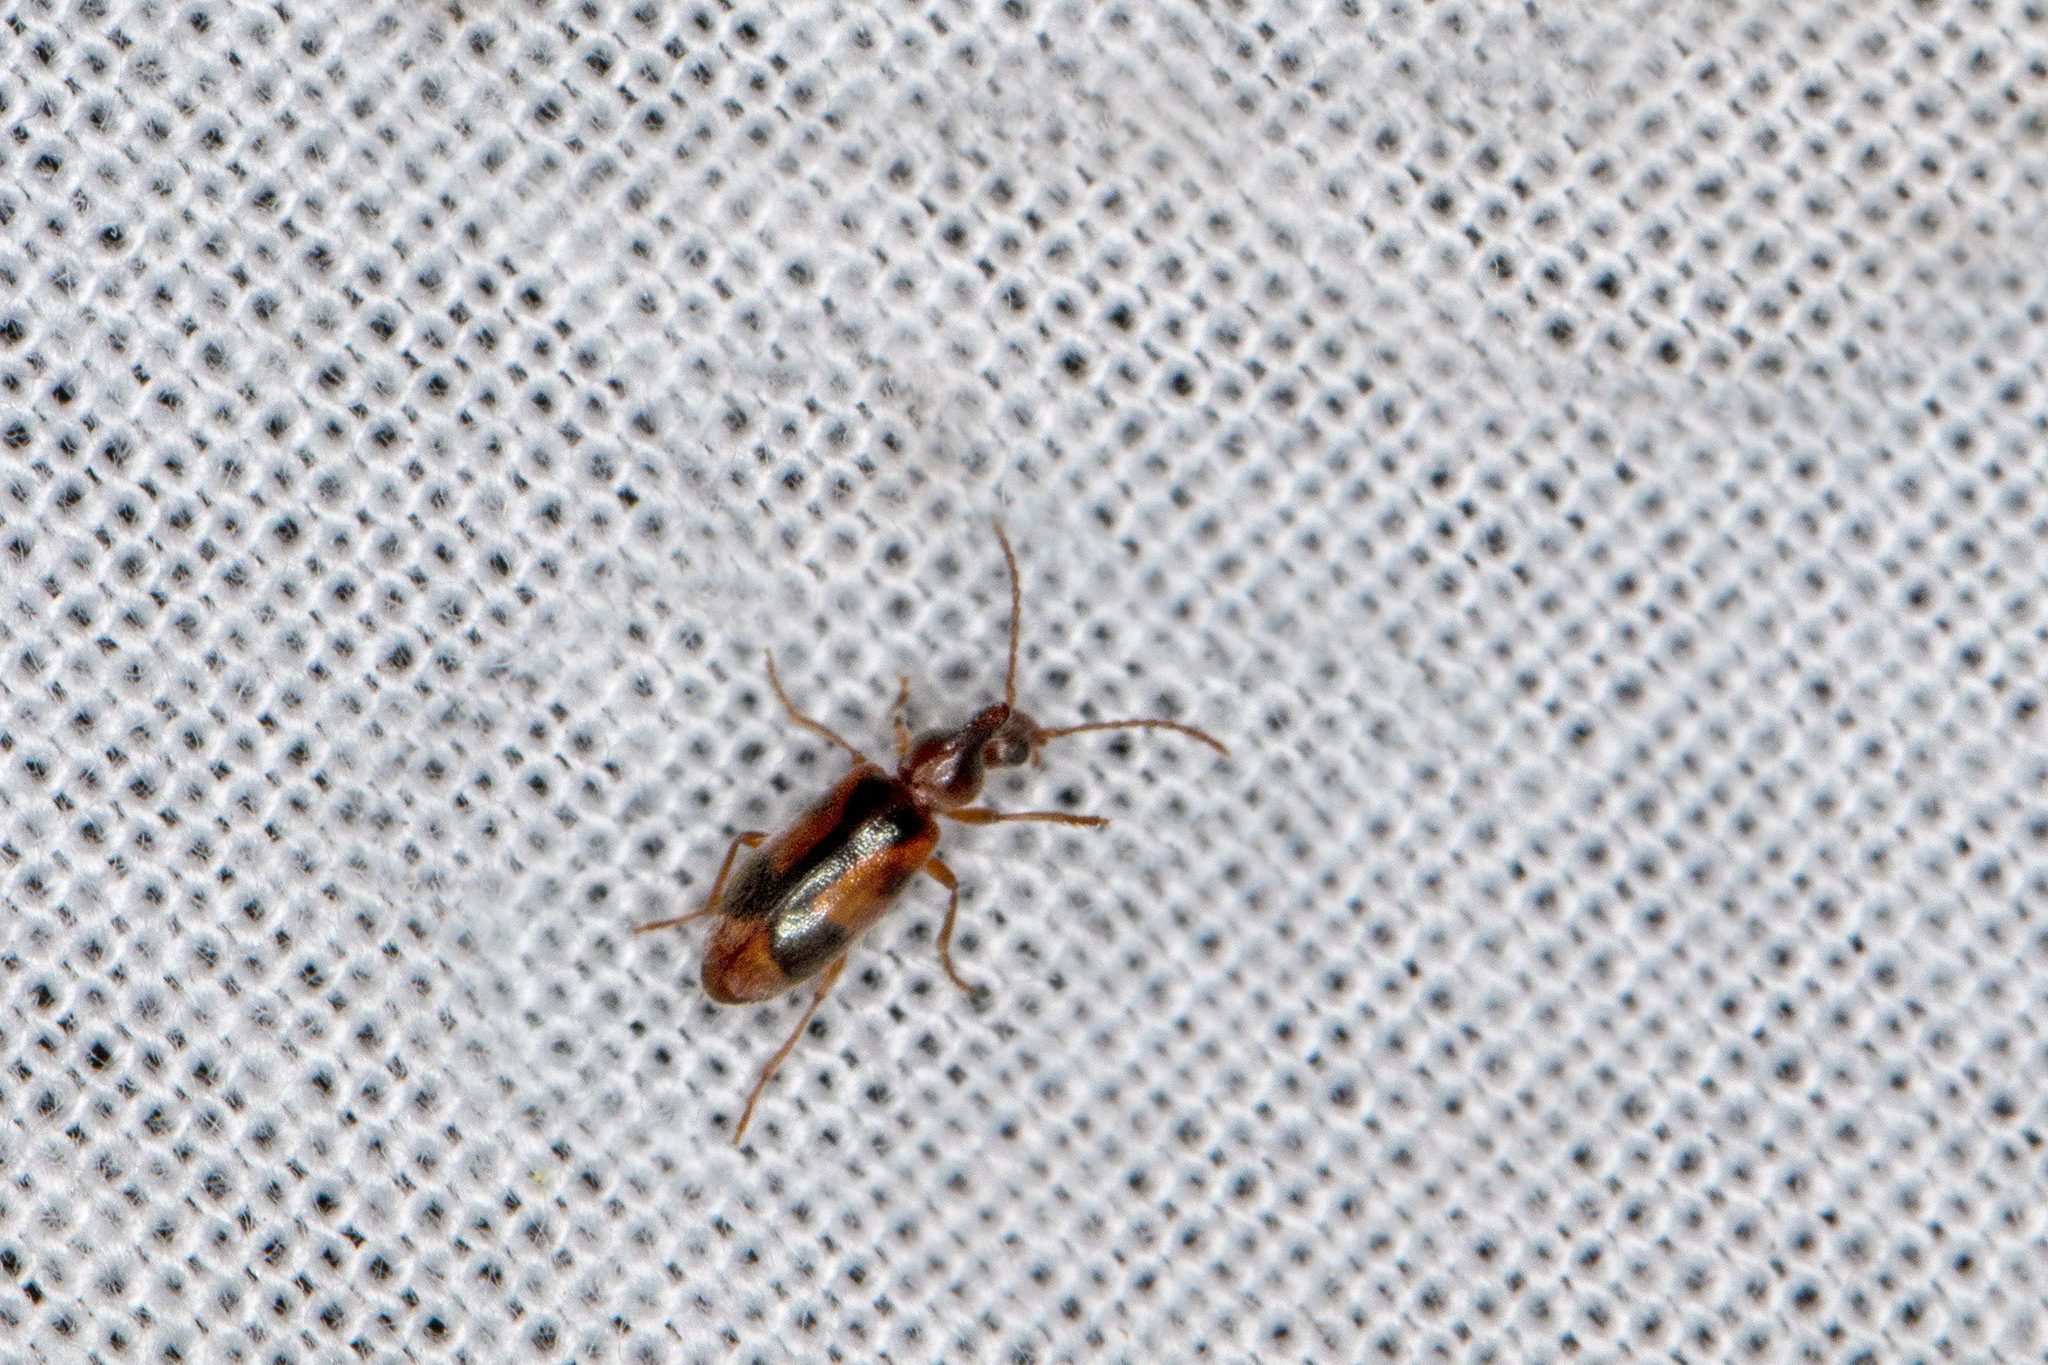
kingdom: Animalia
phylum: Arthropoda
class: Insecta
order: Coleoptera
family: Anthicidae
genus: Notoxus
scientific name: Notoxus monoceros
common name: Monoceros beetle
